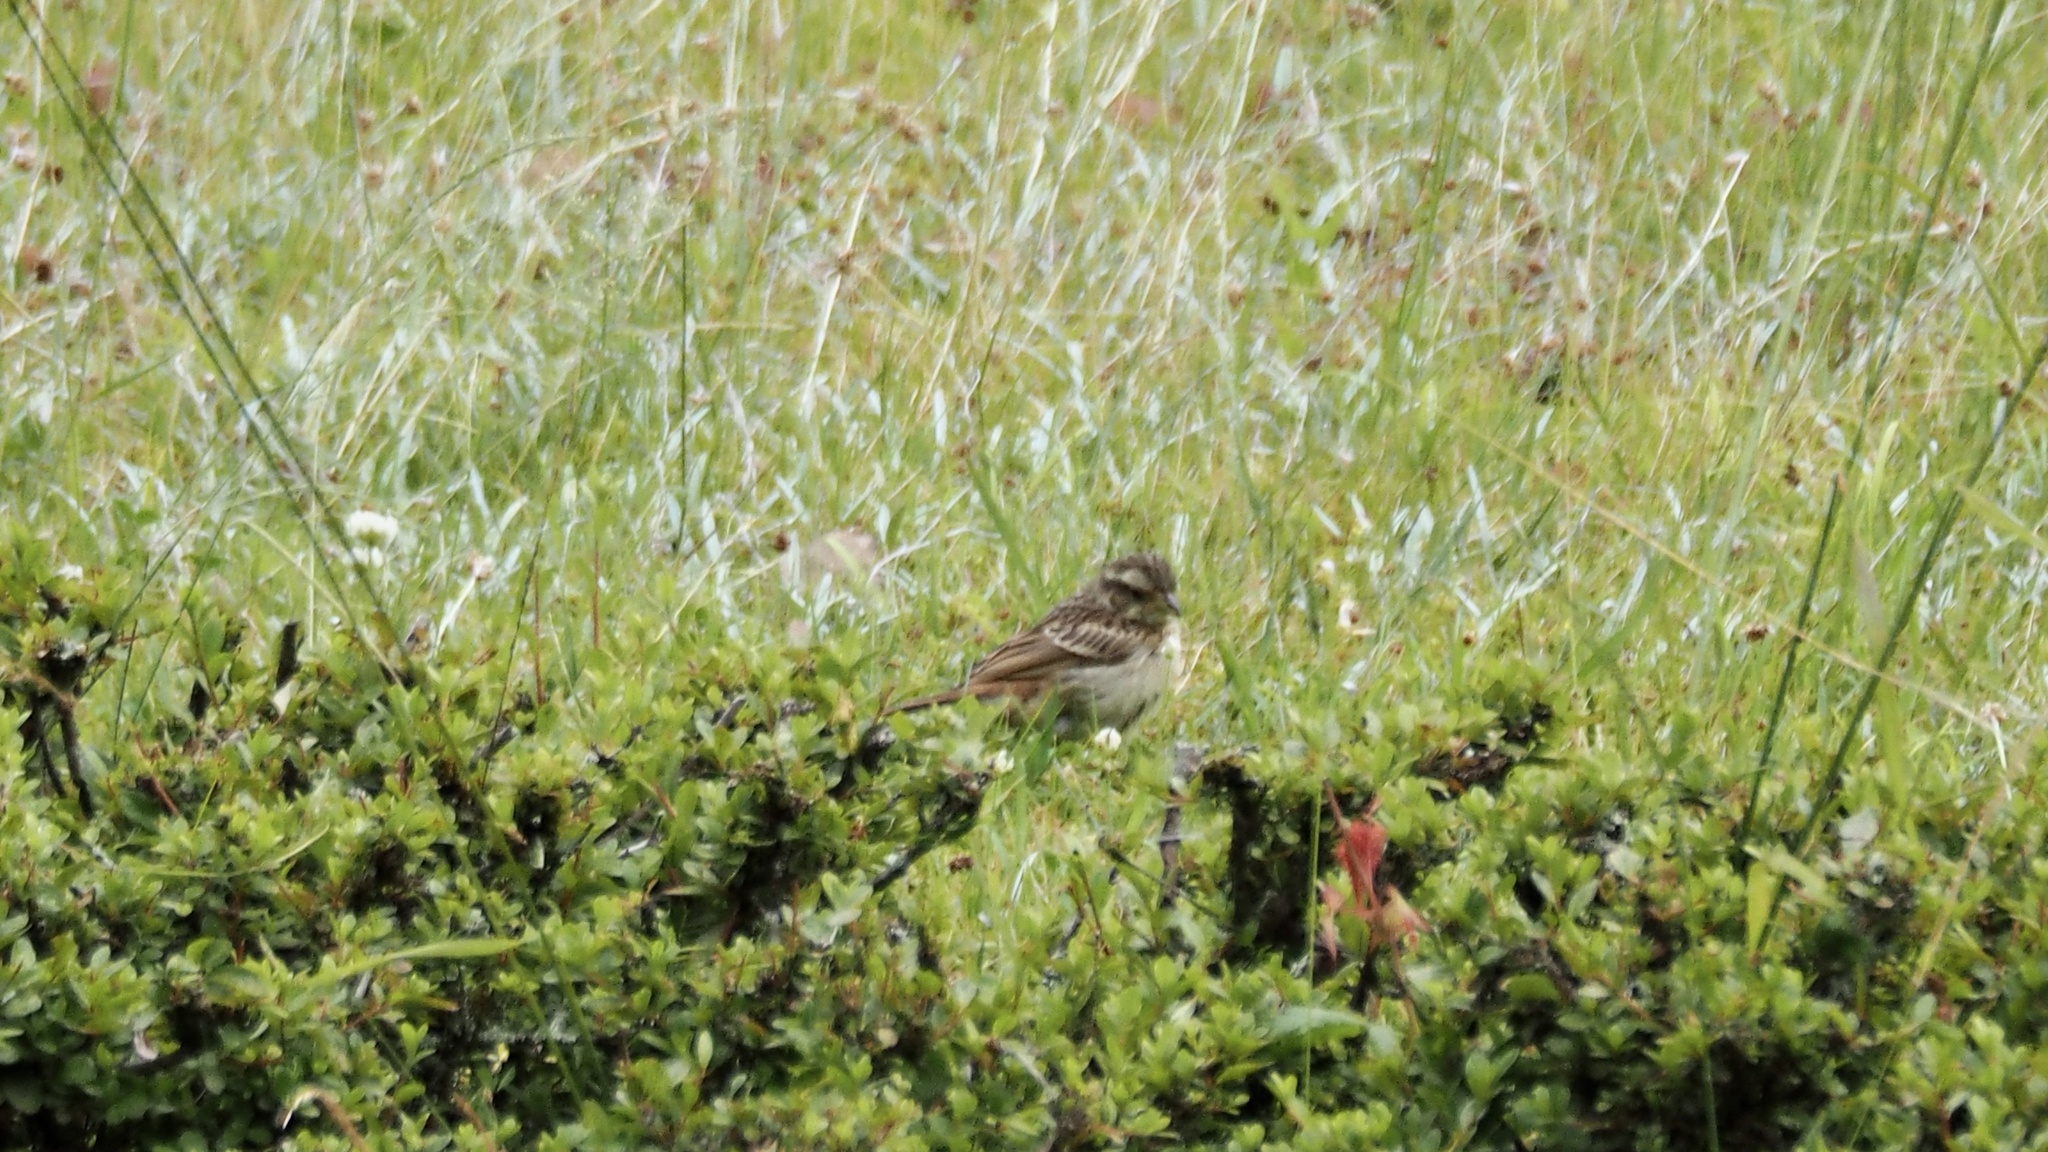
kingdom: Animalia
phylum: Chordata
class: Aves
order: Passeriformes
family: Emberizidae
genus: Emberiza
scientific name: Emberiza rustica
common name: Rustic bunting
